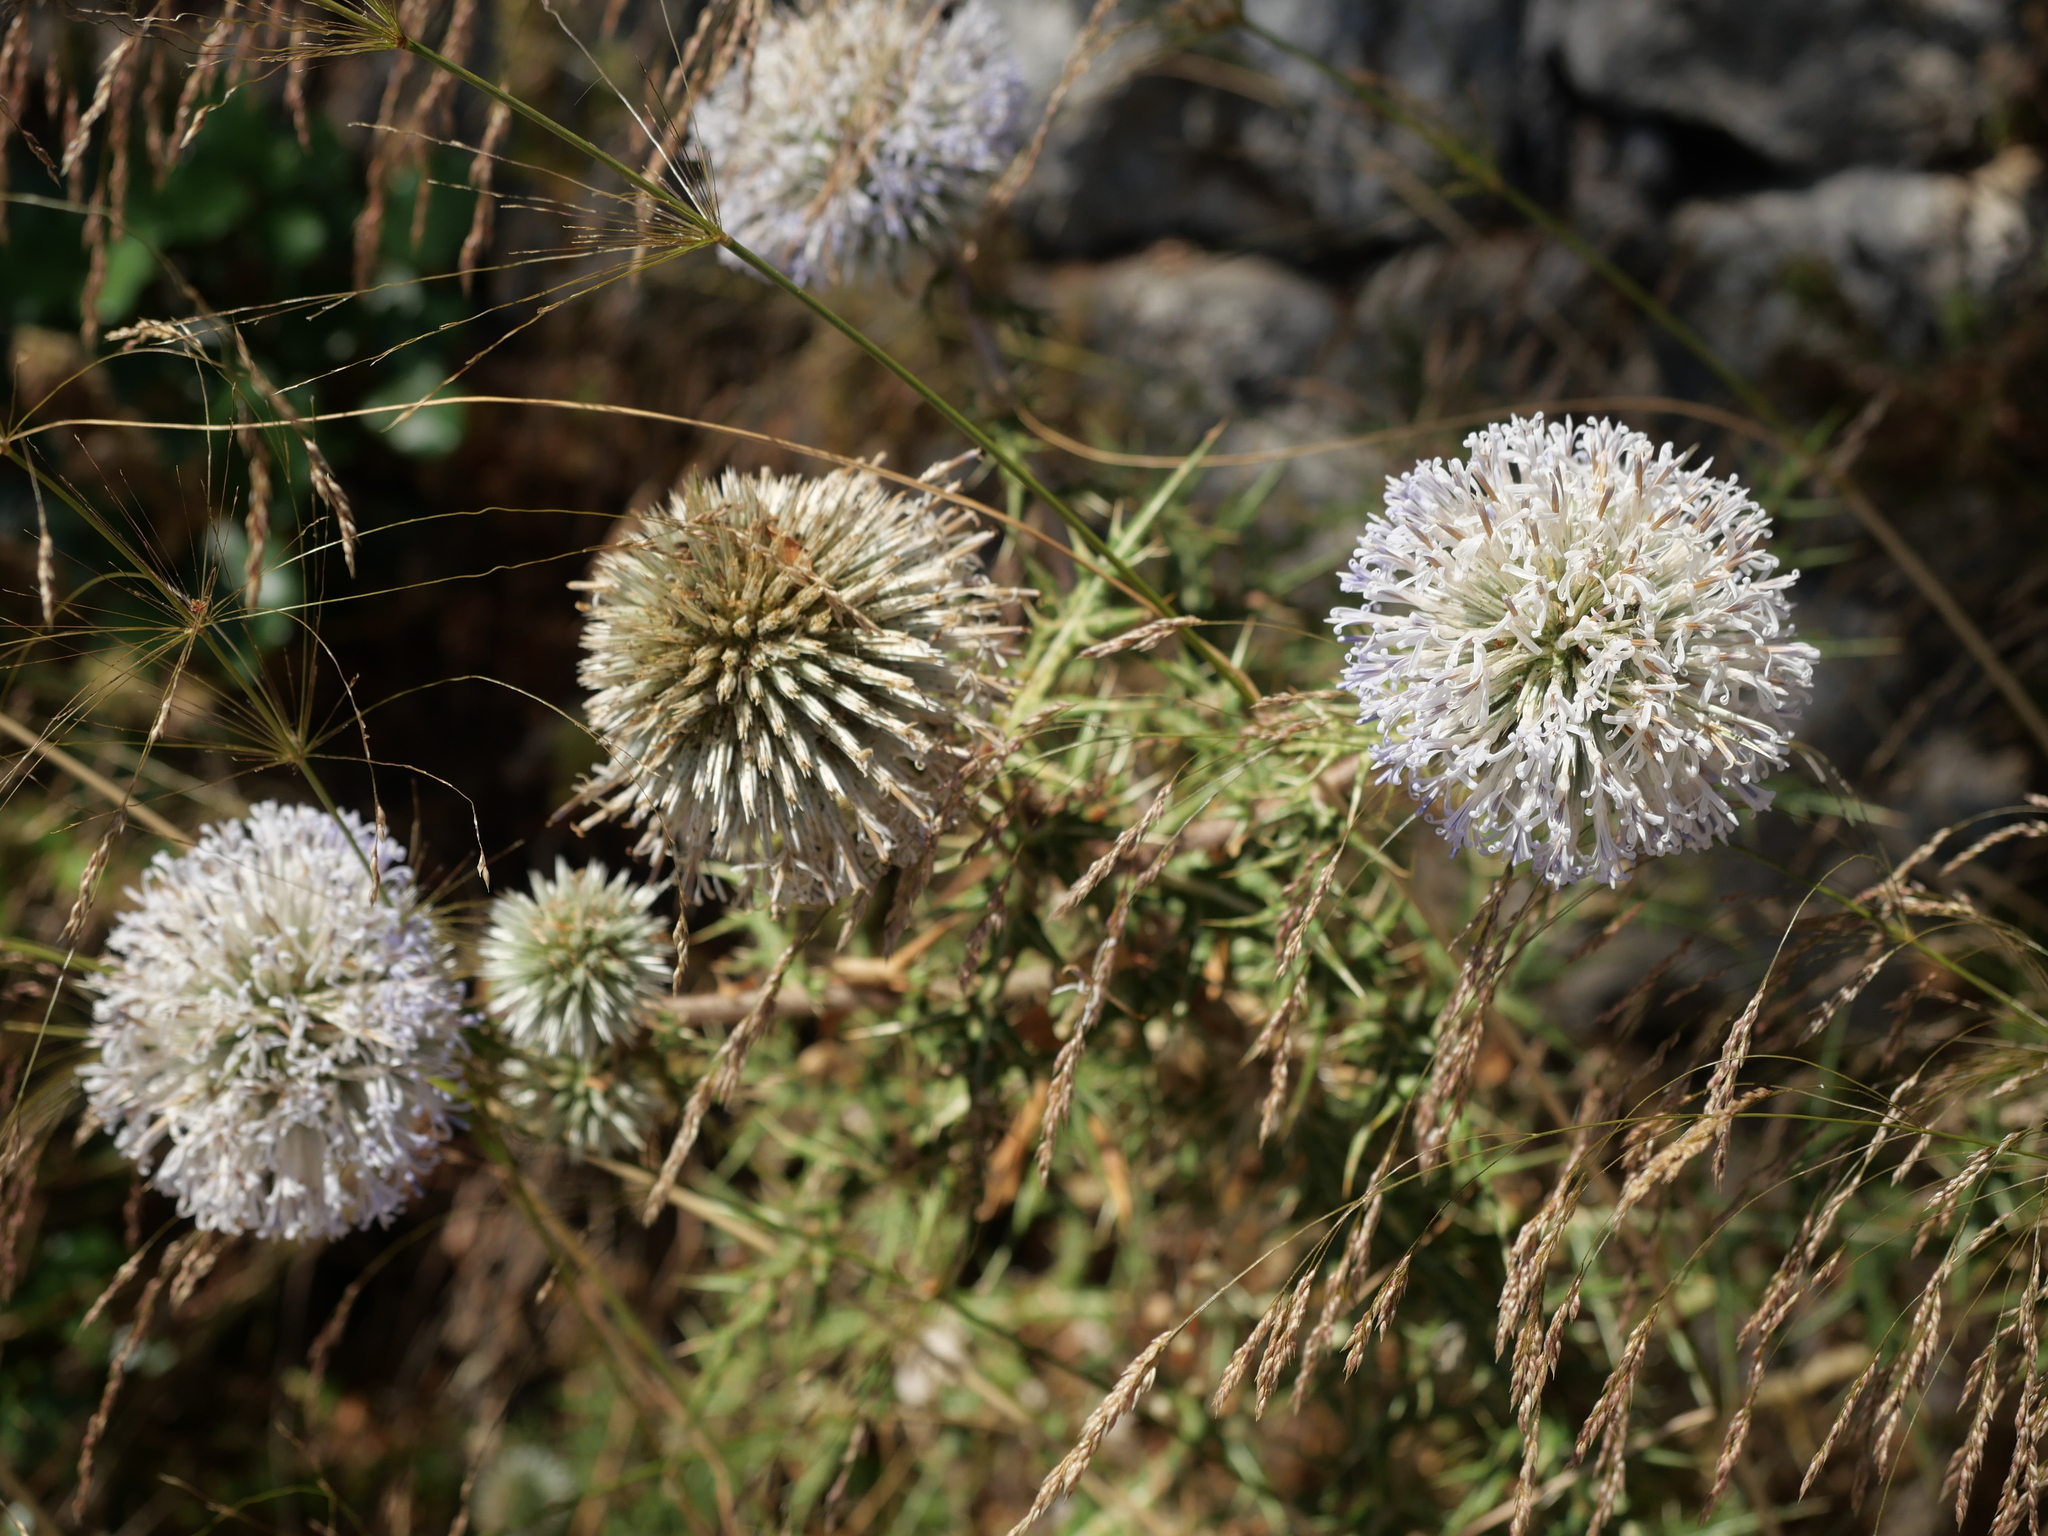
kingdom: Plantae
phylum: Tracheophyta
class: Magnoliopsida
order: Asterales
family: Asteraceae
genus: Echinops
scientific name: Echinops spinosissimus
